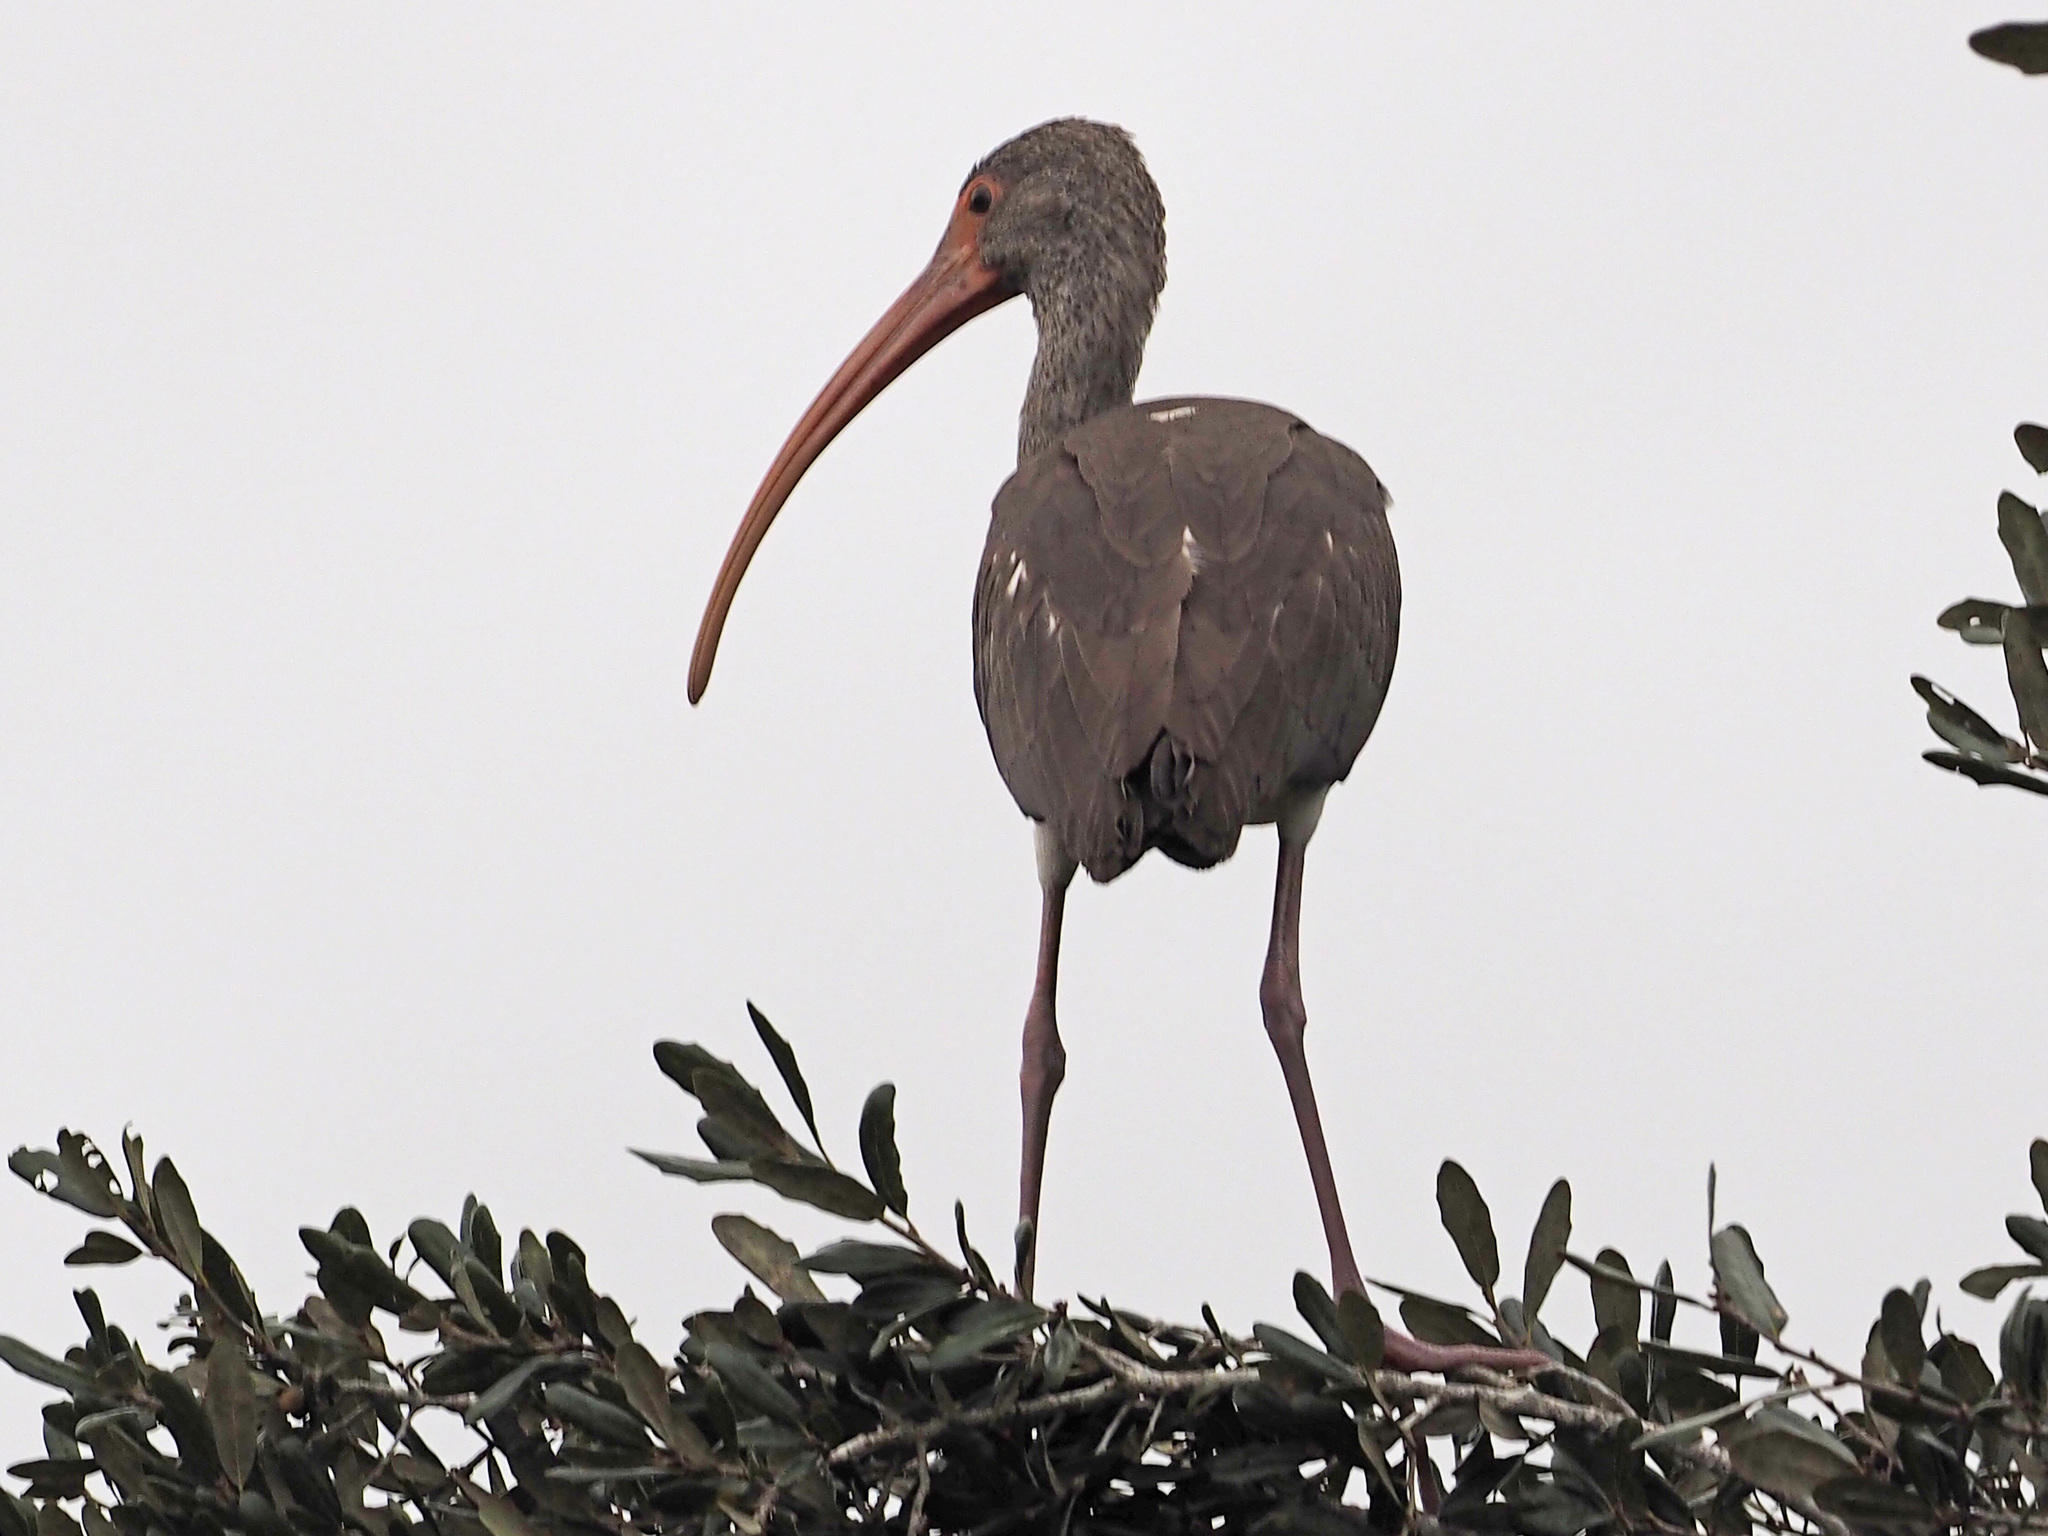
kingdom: Animalia
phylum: Chordata
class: Aves
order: Pelecaniformes
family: Threskiornithidae
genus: Eudocimus
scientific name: Eudocimus albus
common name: White ibis
